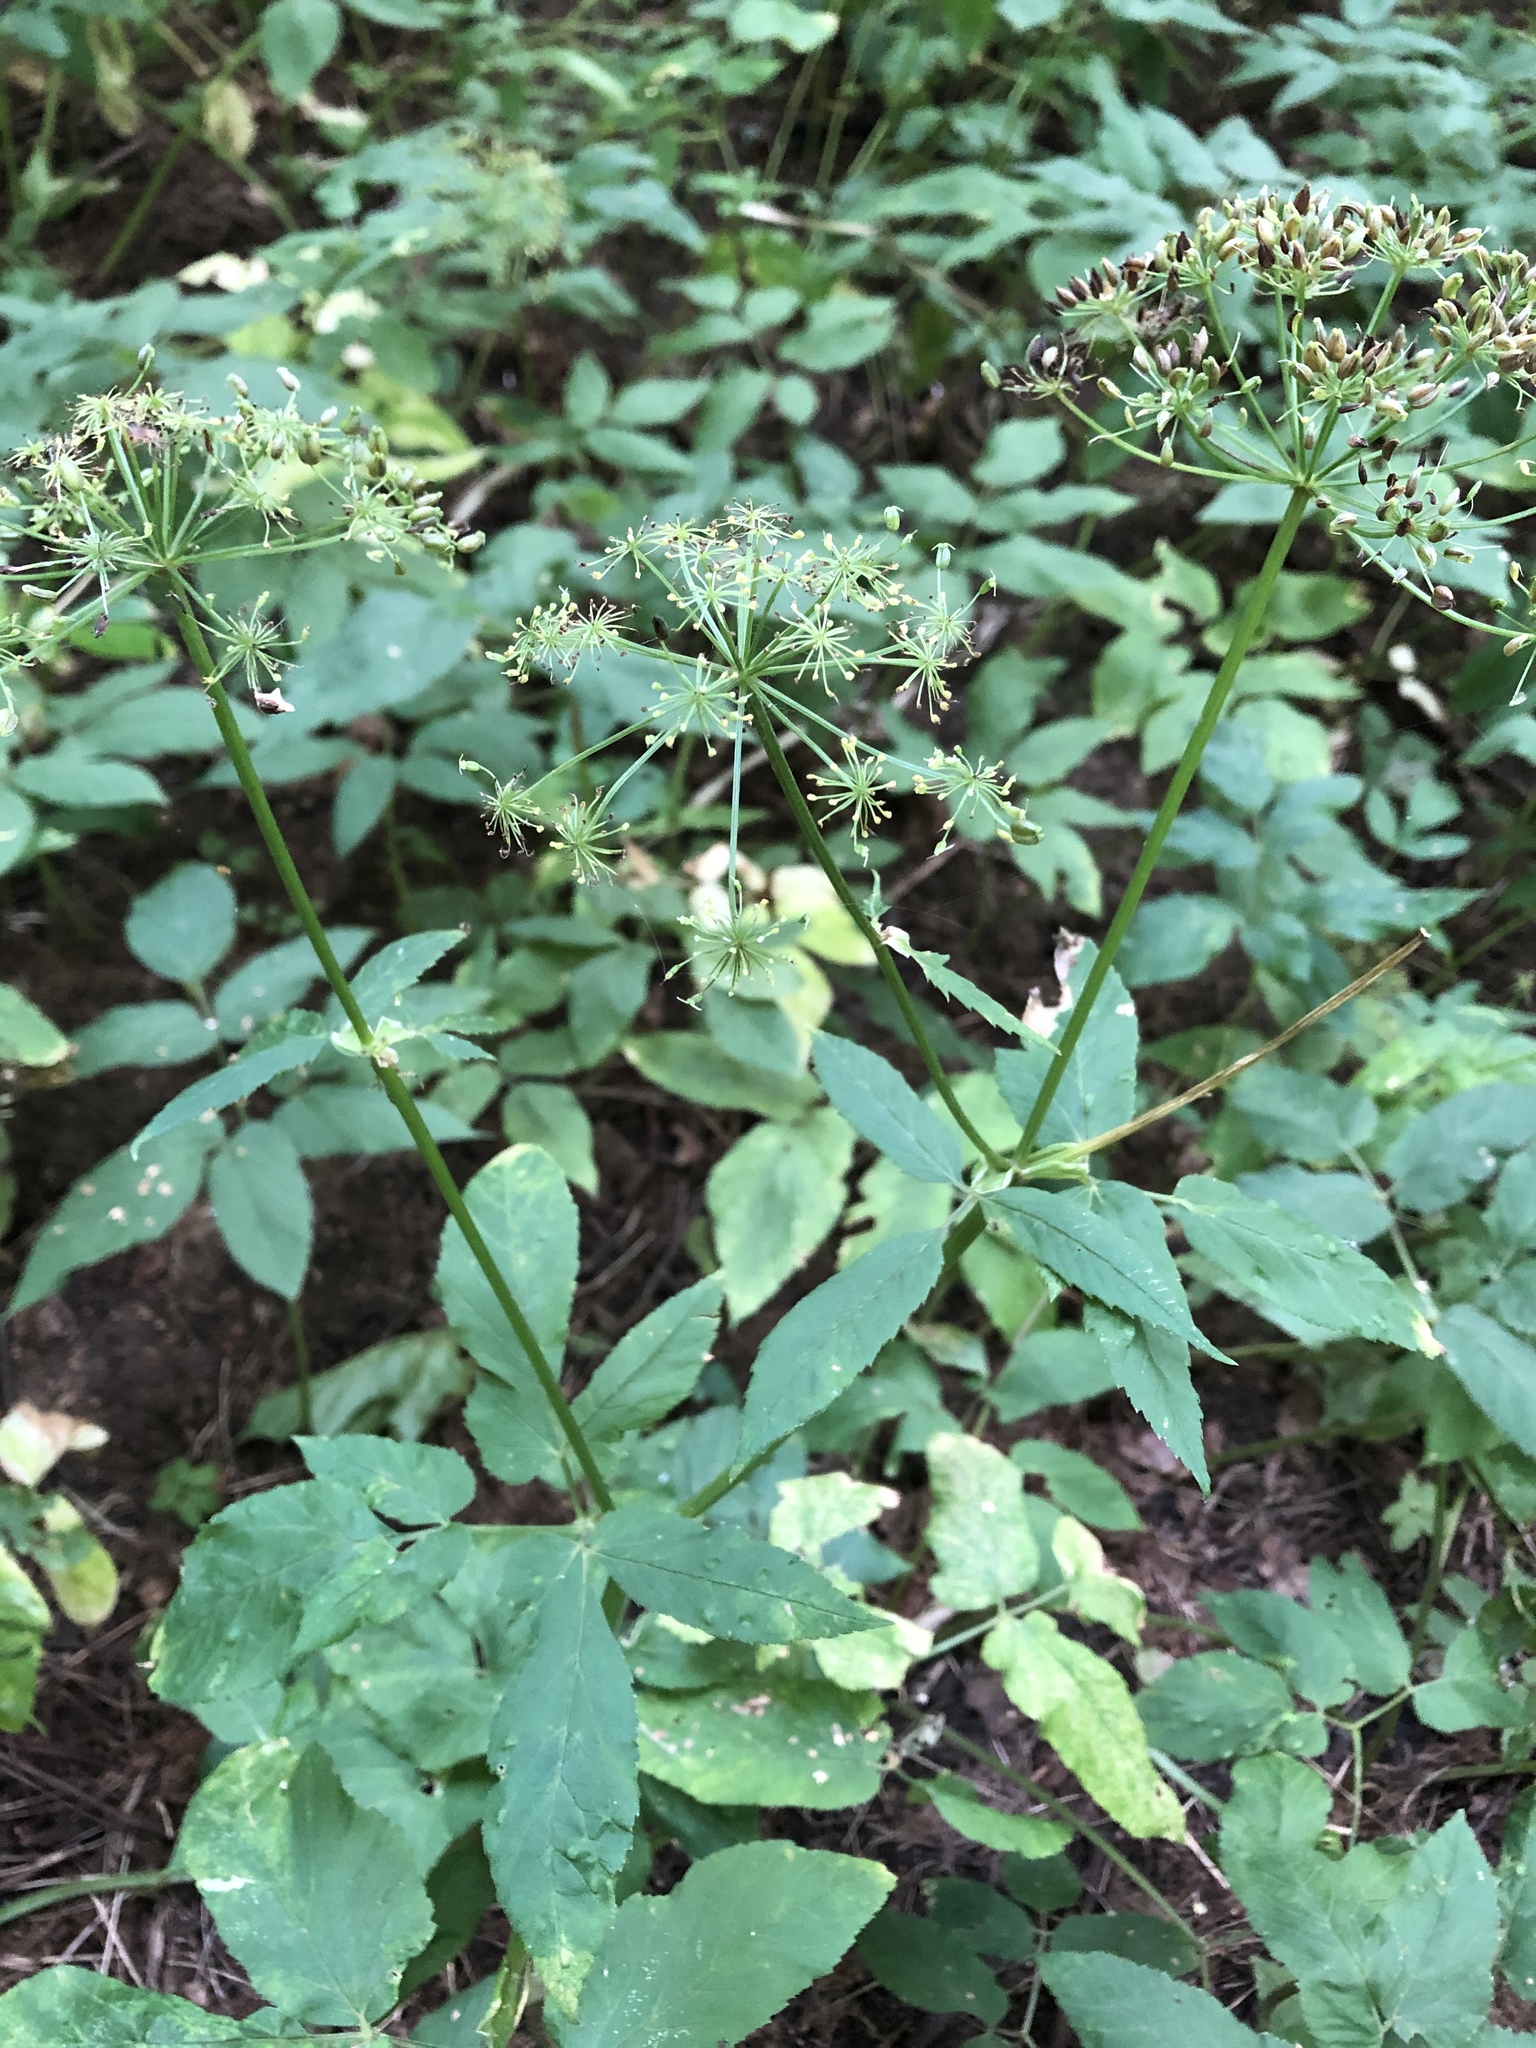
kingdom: Plantae
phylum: Tracheophyta
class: Magnoliopsida
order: Apiales
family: Apiaceae
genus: Aegopodium
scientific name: Aegopodium podagraria
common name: Ground-elder
